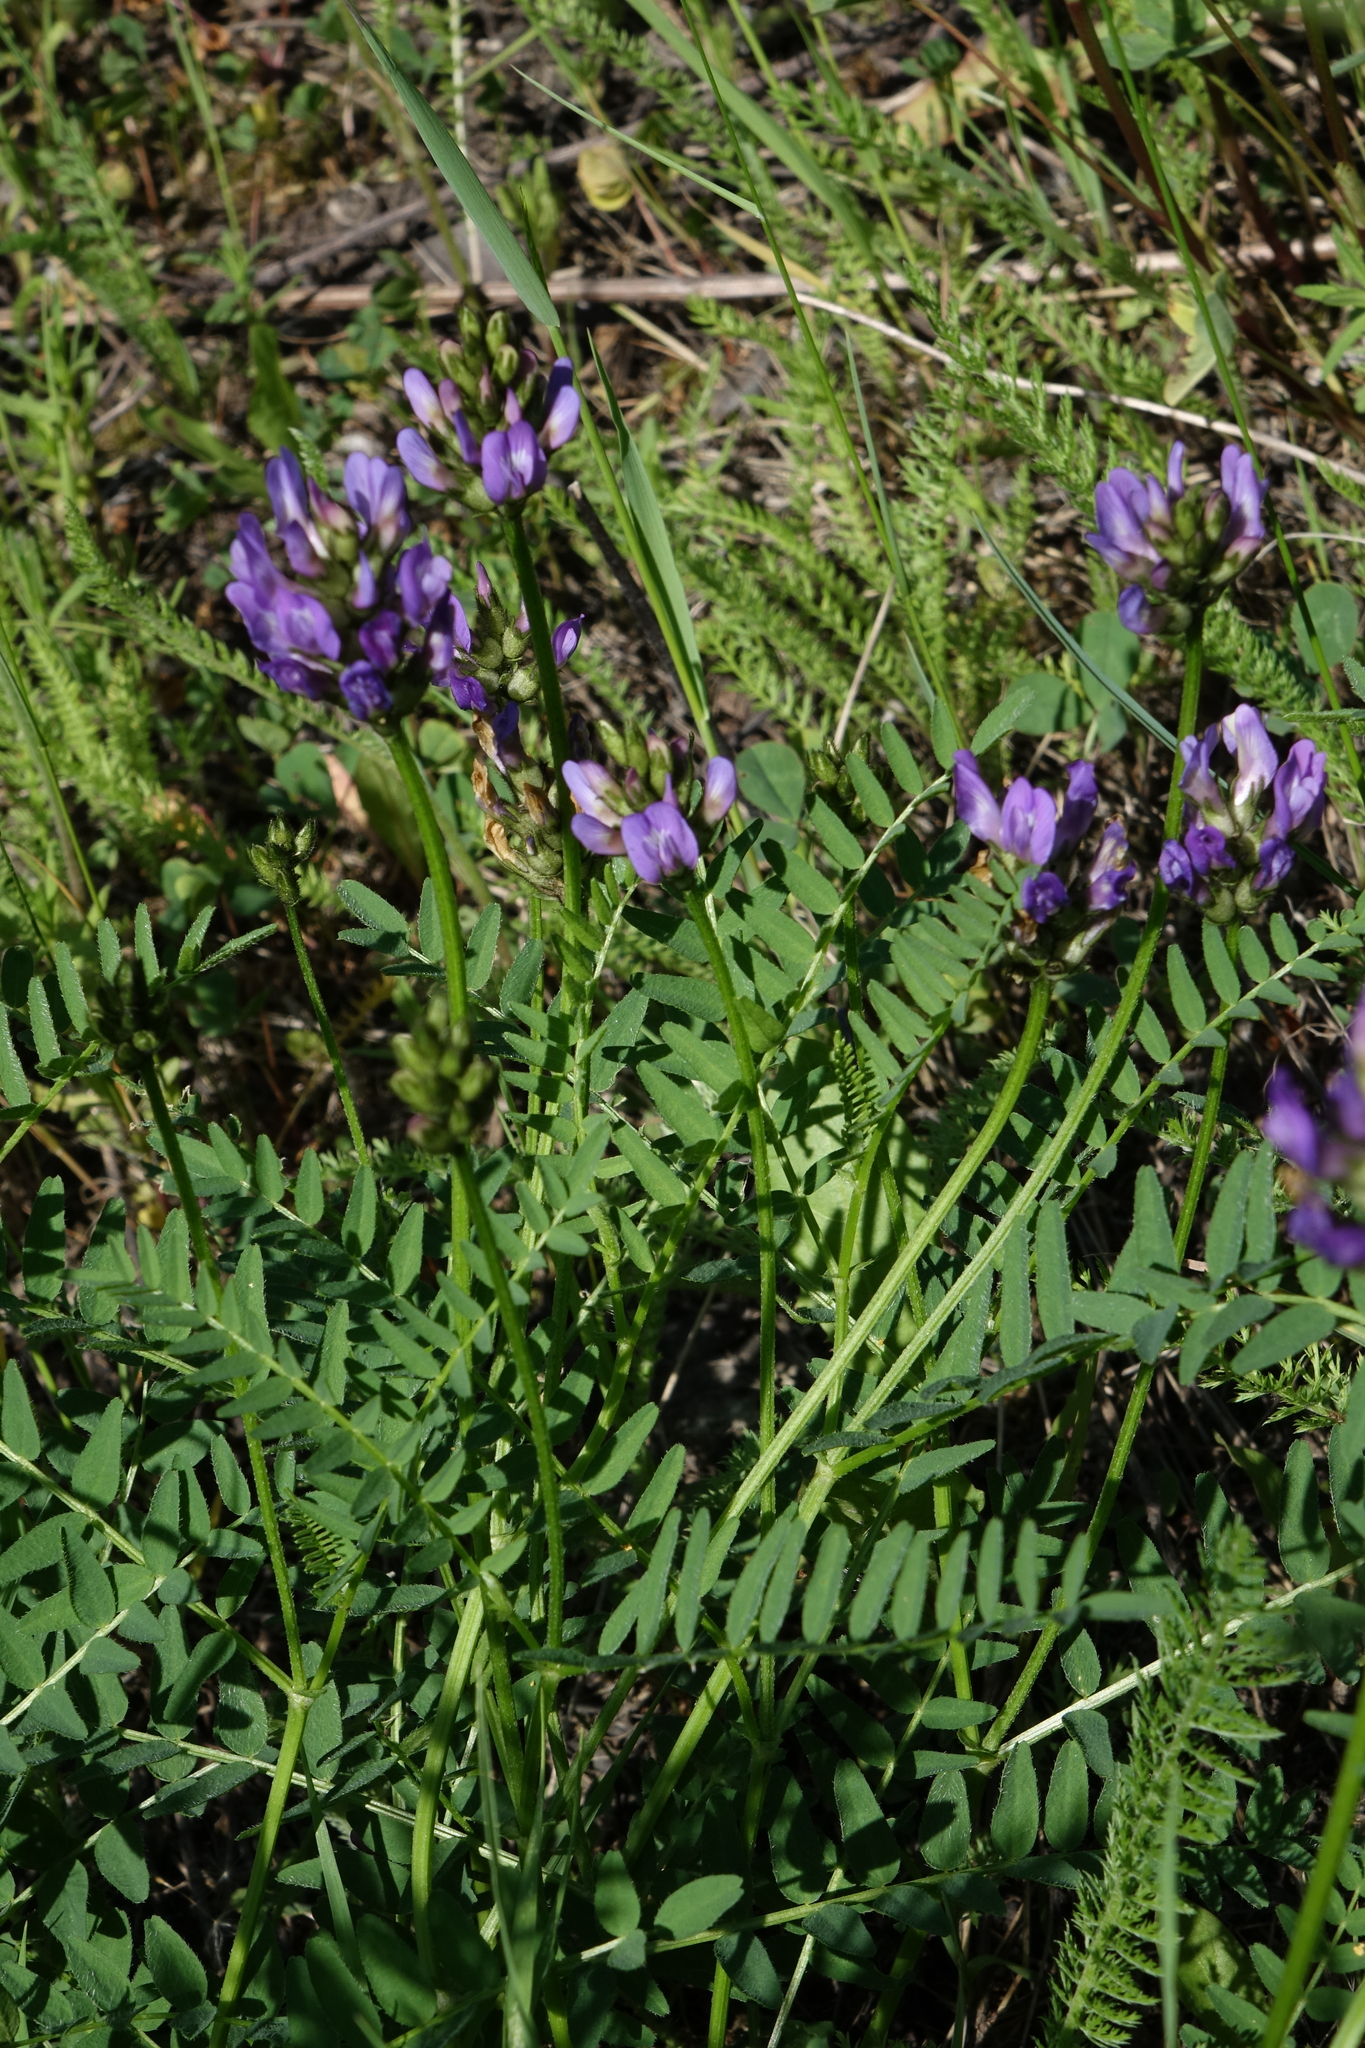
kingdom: Plantae
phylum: Tracheophyta
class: Magnoliopsida
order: Fabales
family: Fabaceae
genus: Astragalus
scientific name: Astragalus danicus
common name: Purple milk-vetch
